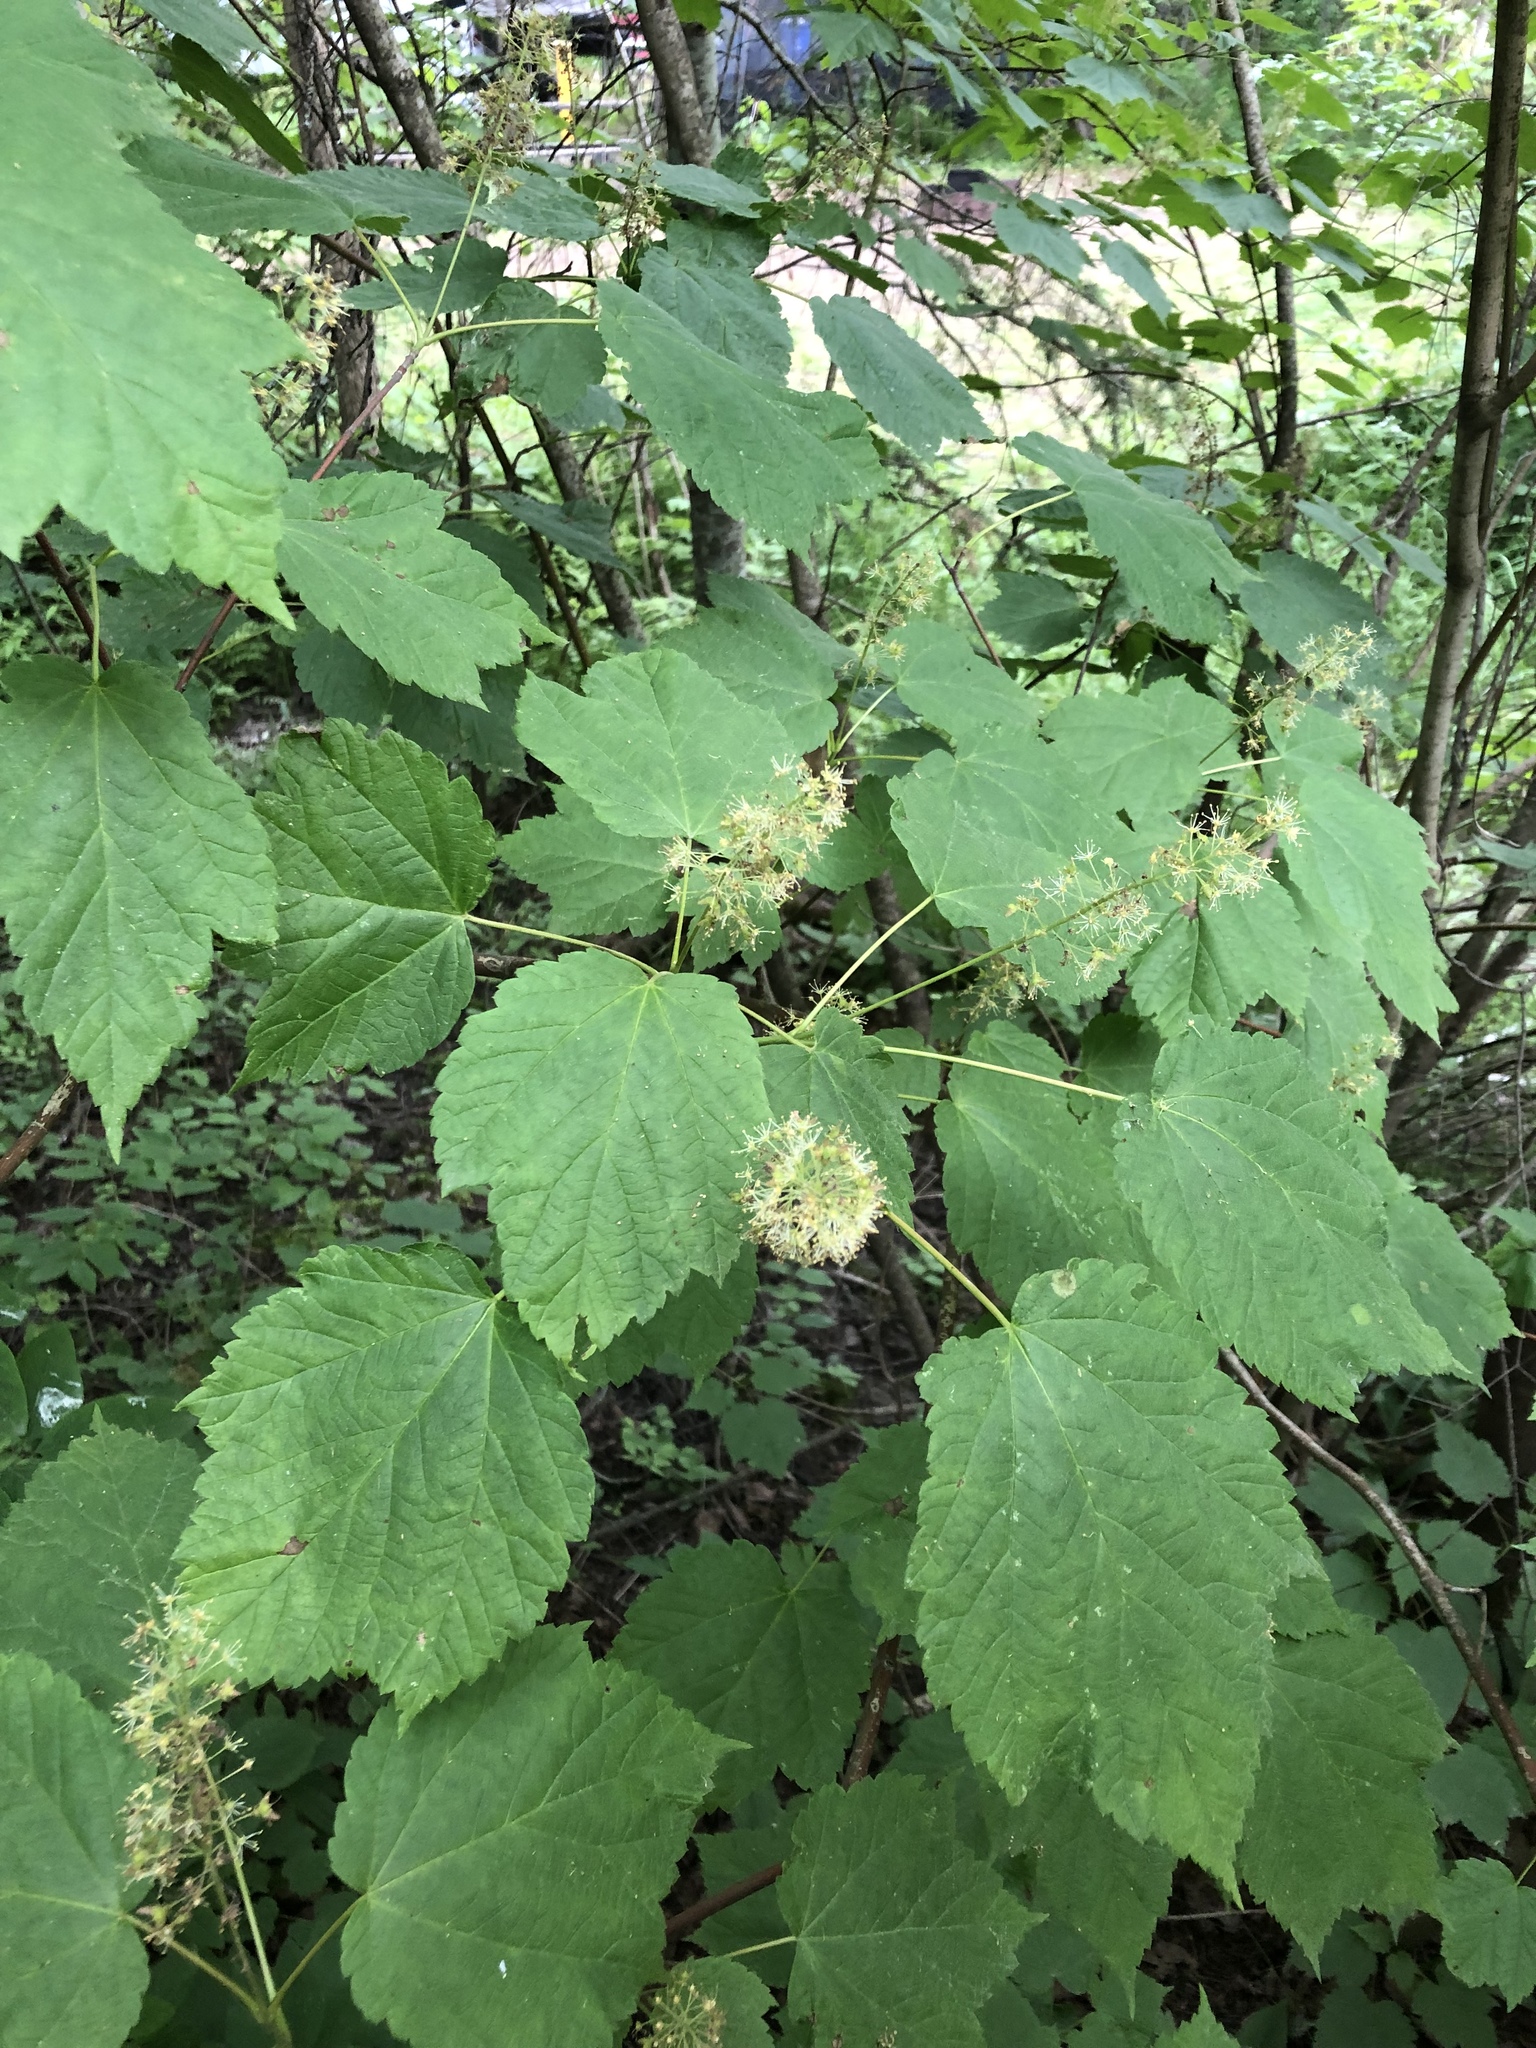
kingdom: Plantae
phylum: Tracheophyta
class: Magnoliopsida
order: Sapindales
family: Sapindaceae
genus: Acer
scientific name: Acer spicatum
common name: Mountain maple
